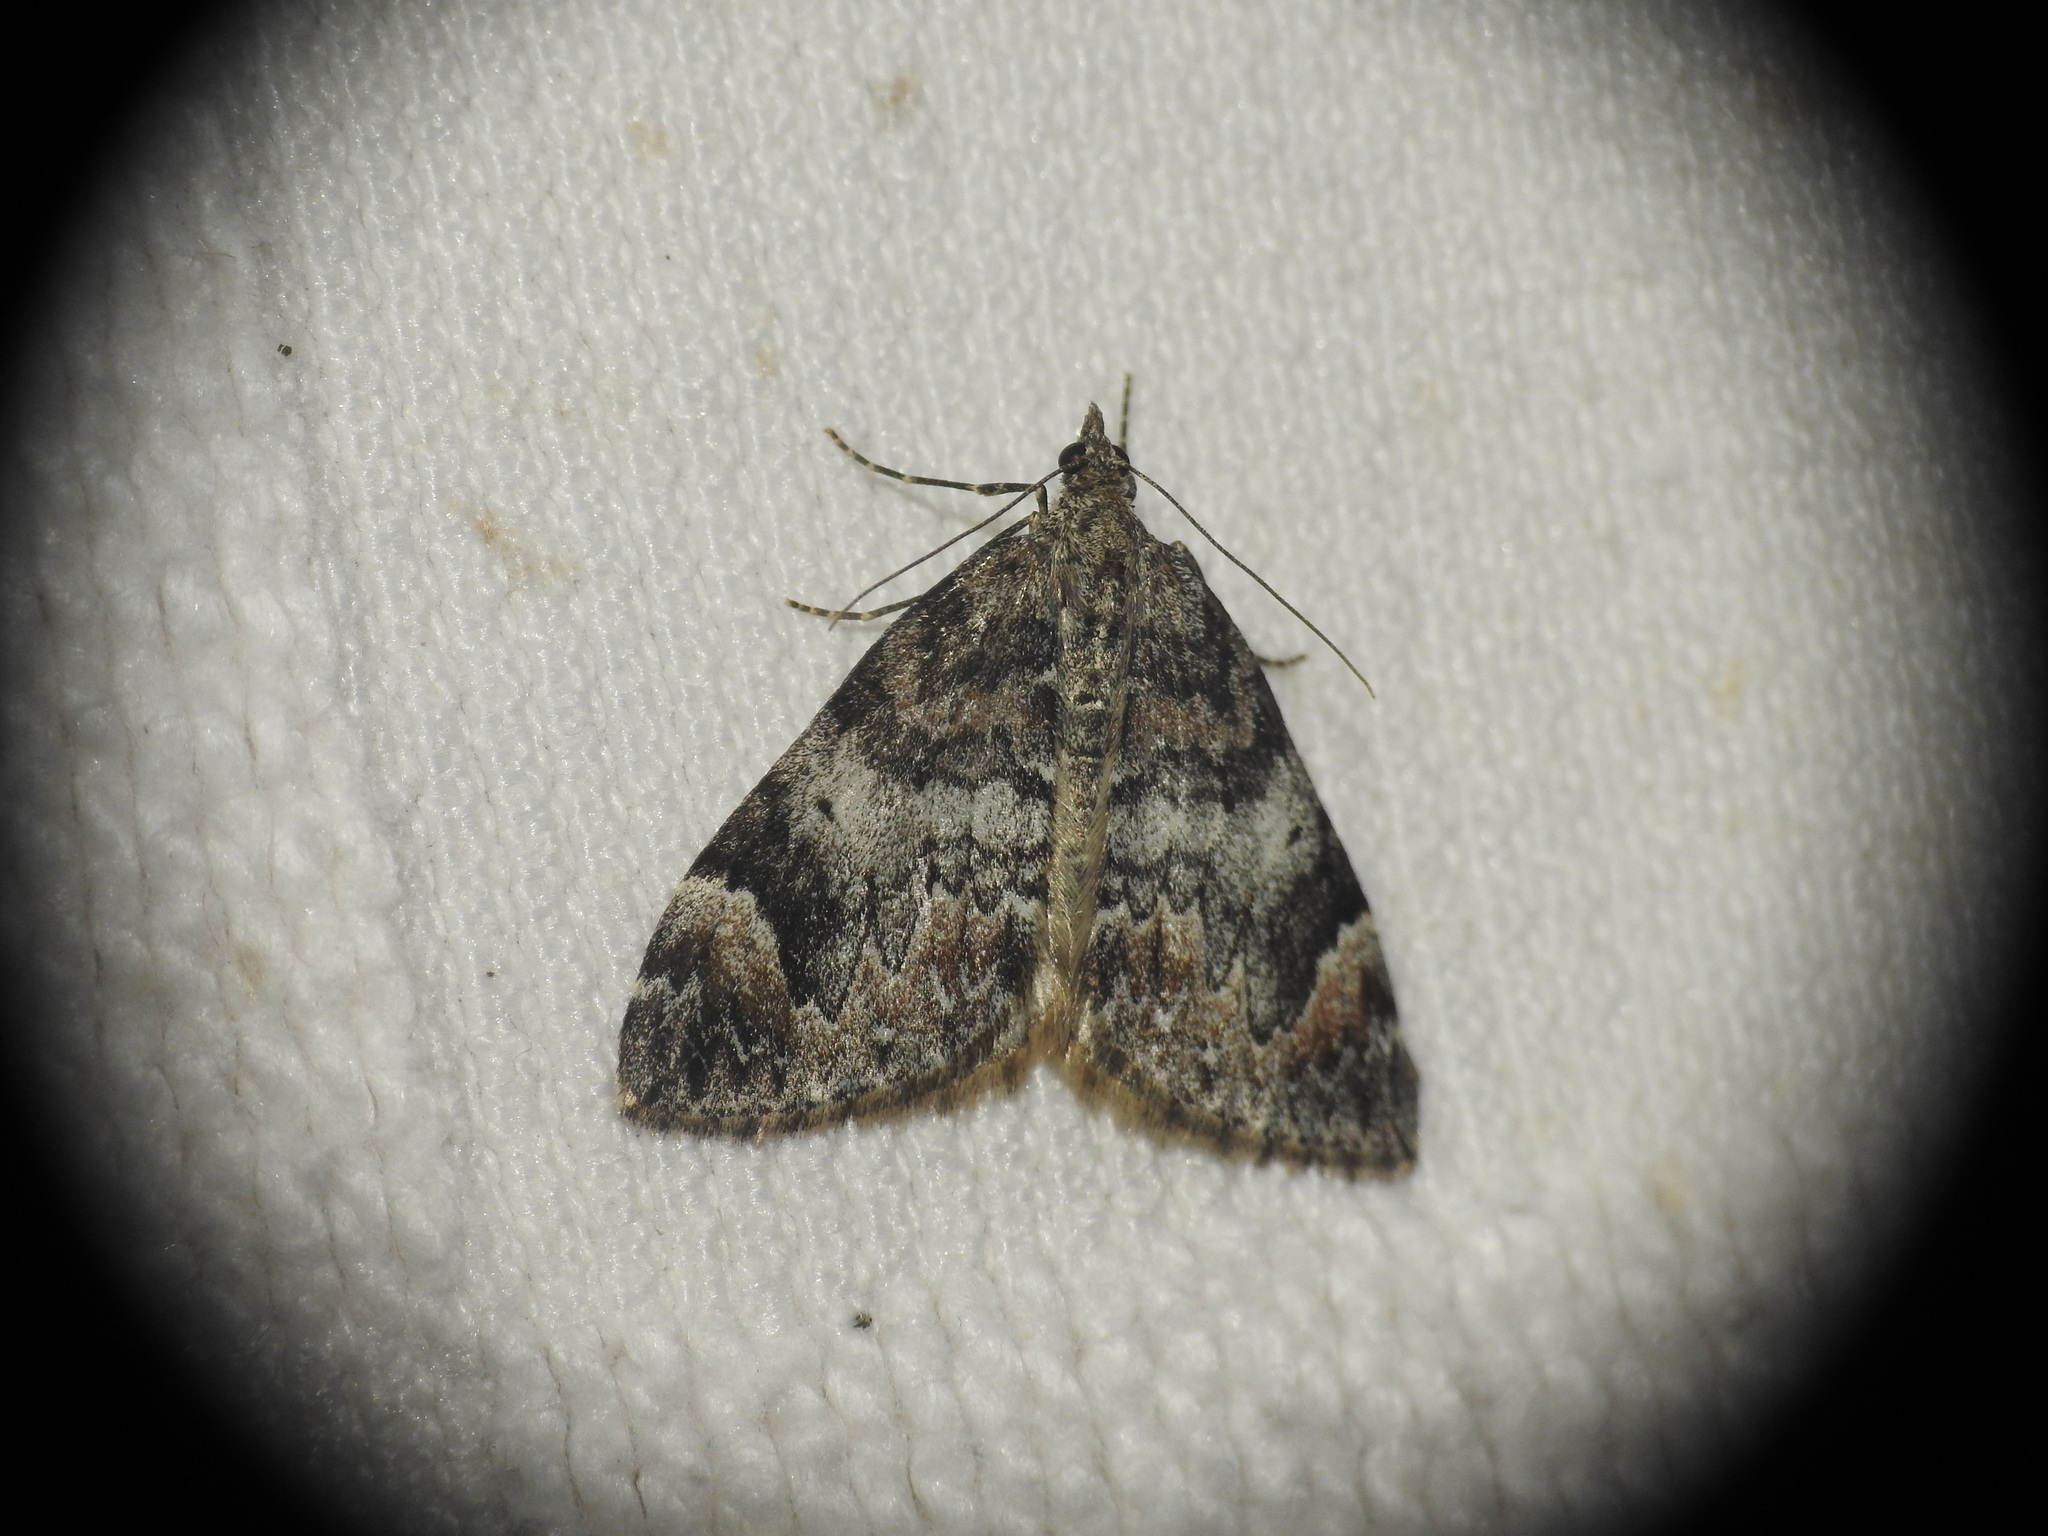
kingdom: Animalia
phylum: Arthropoda
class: Insecta
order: Lepidoptera
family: Geometridae
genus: Dysstroma
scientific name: Dysstroma citrata
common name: Dark marbled carpet
